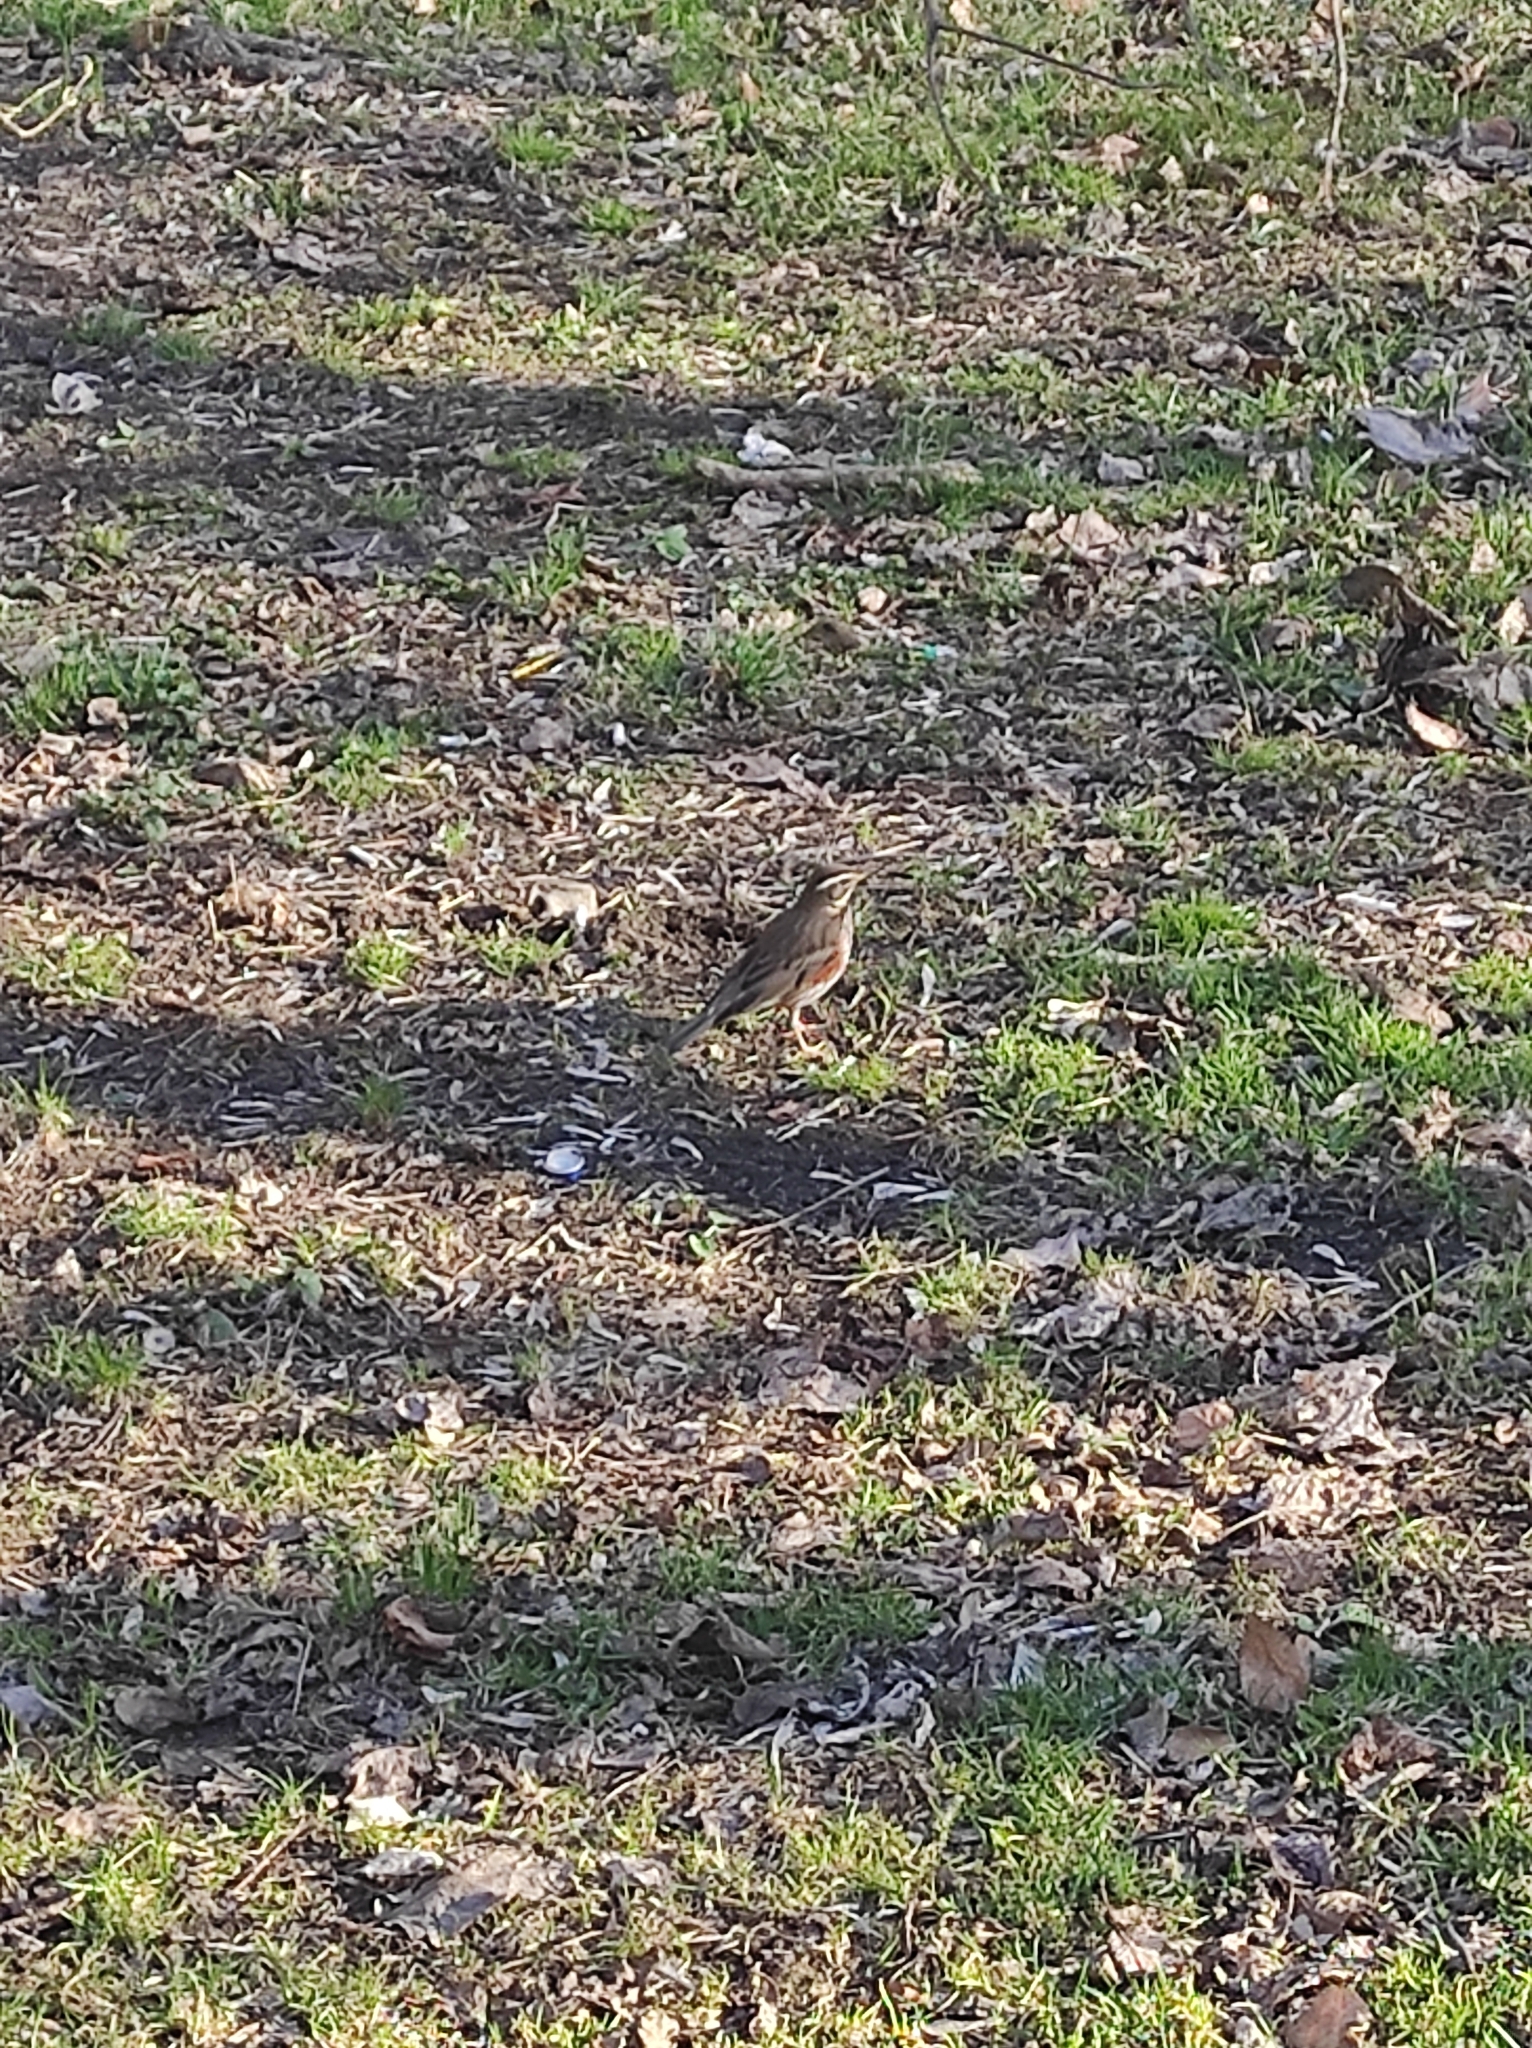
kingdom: Animalia
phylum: Chordata
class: Aves
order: Passeriformes
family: Turdidae
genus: Turdus
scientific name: Turdus iliacus
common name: Redwing
